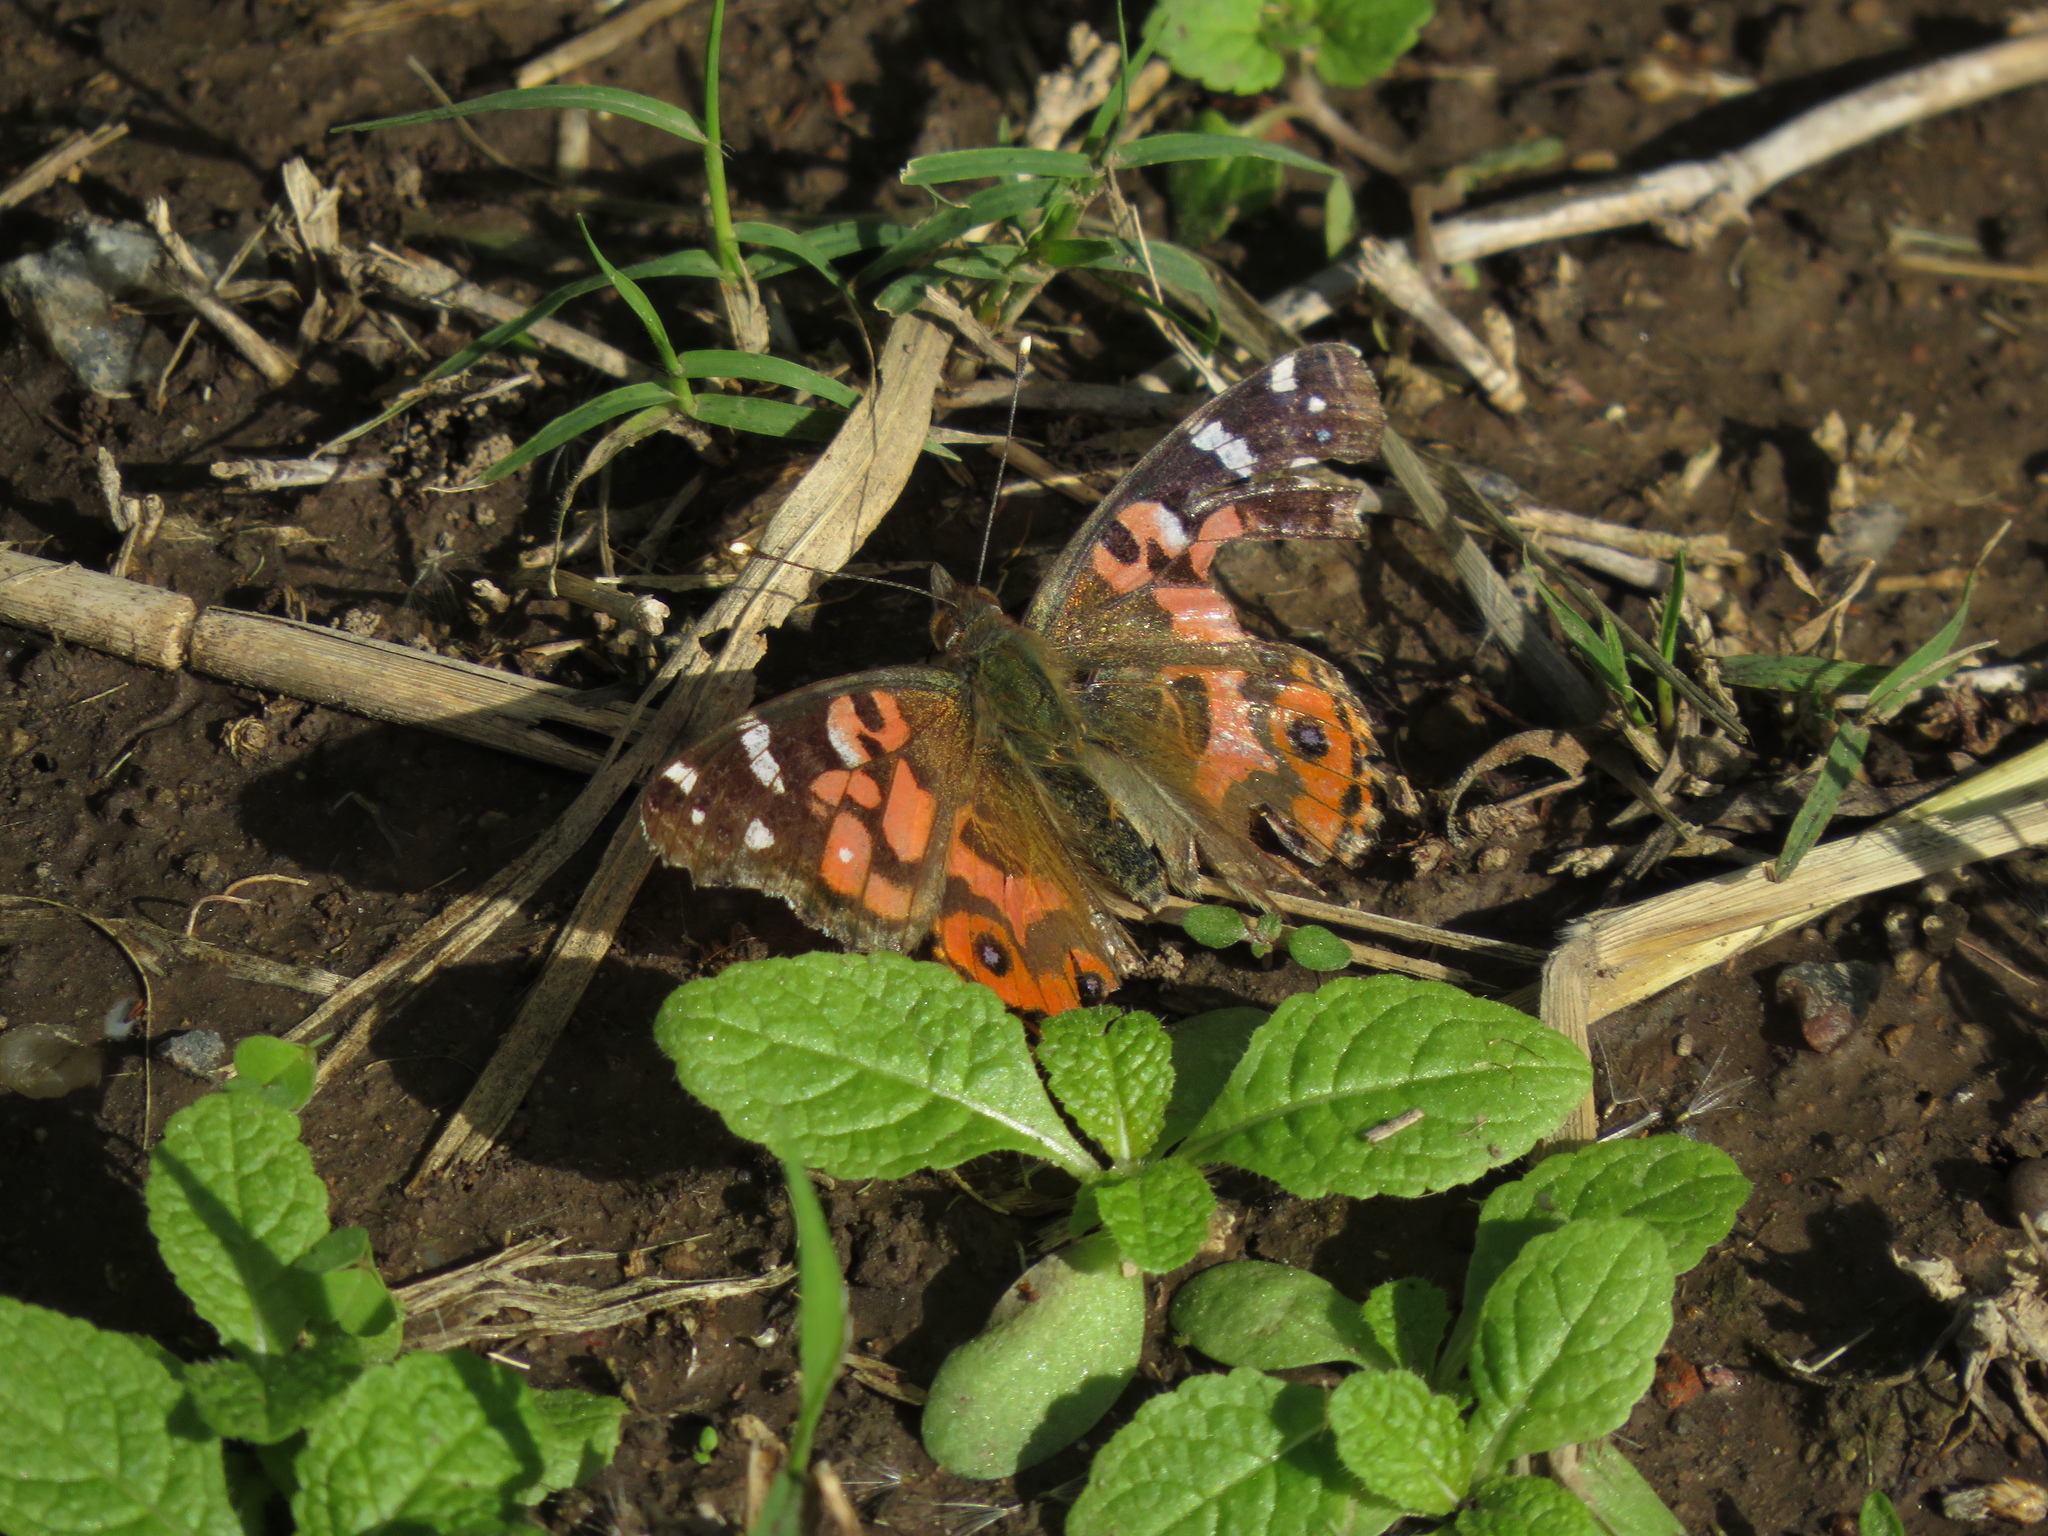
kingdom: Animalia
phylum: Arthropoda
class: Insecta
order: Lepidoptera
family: Nymphalidae
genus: Vanessa
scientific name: Vanessa braziliensis
